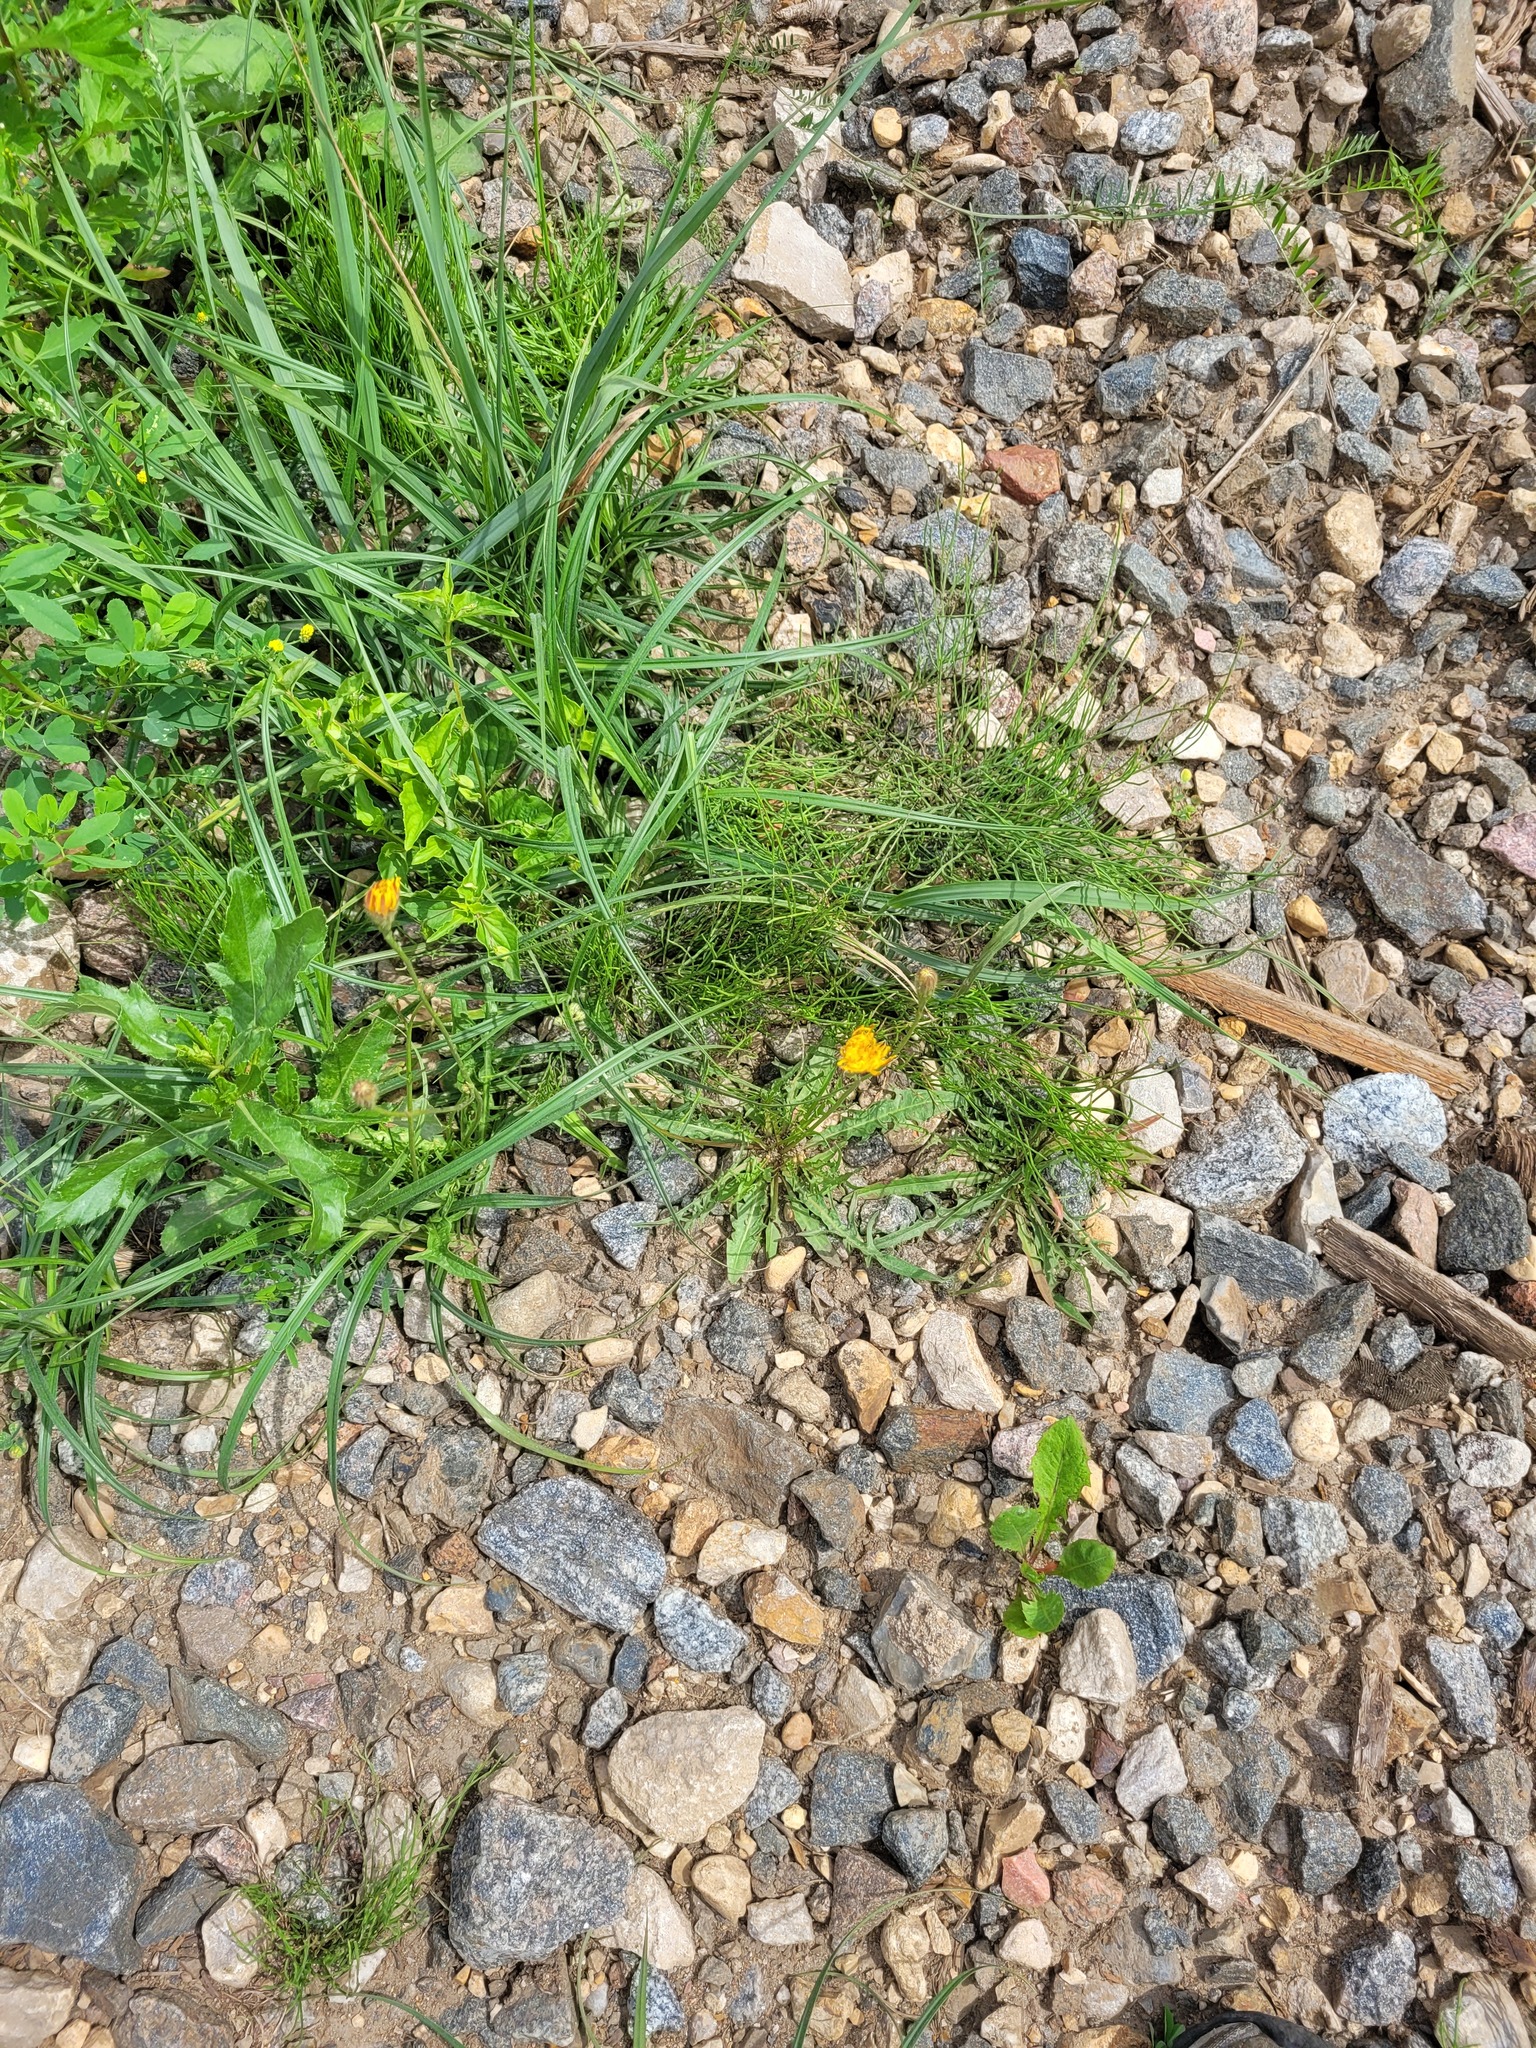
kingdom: Plantae
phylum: Tracheophyta
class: Magnoliopsida
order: Asterales
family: Asteraceae
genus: Scorzoneroides
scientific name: Scorzoneroides autumnalis
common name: Autumn hawkbit
